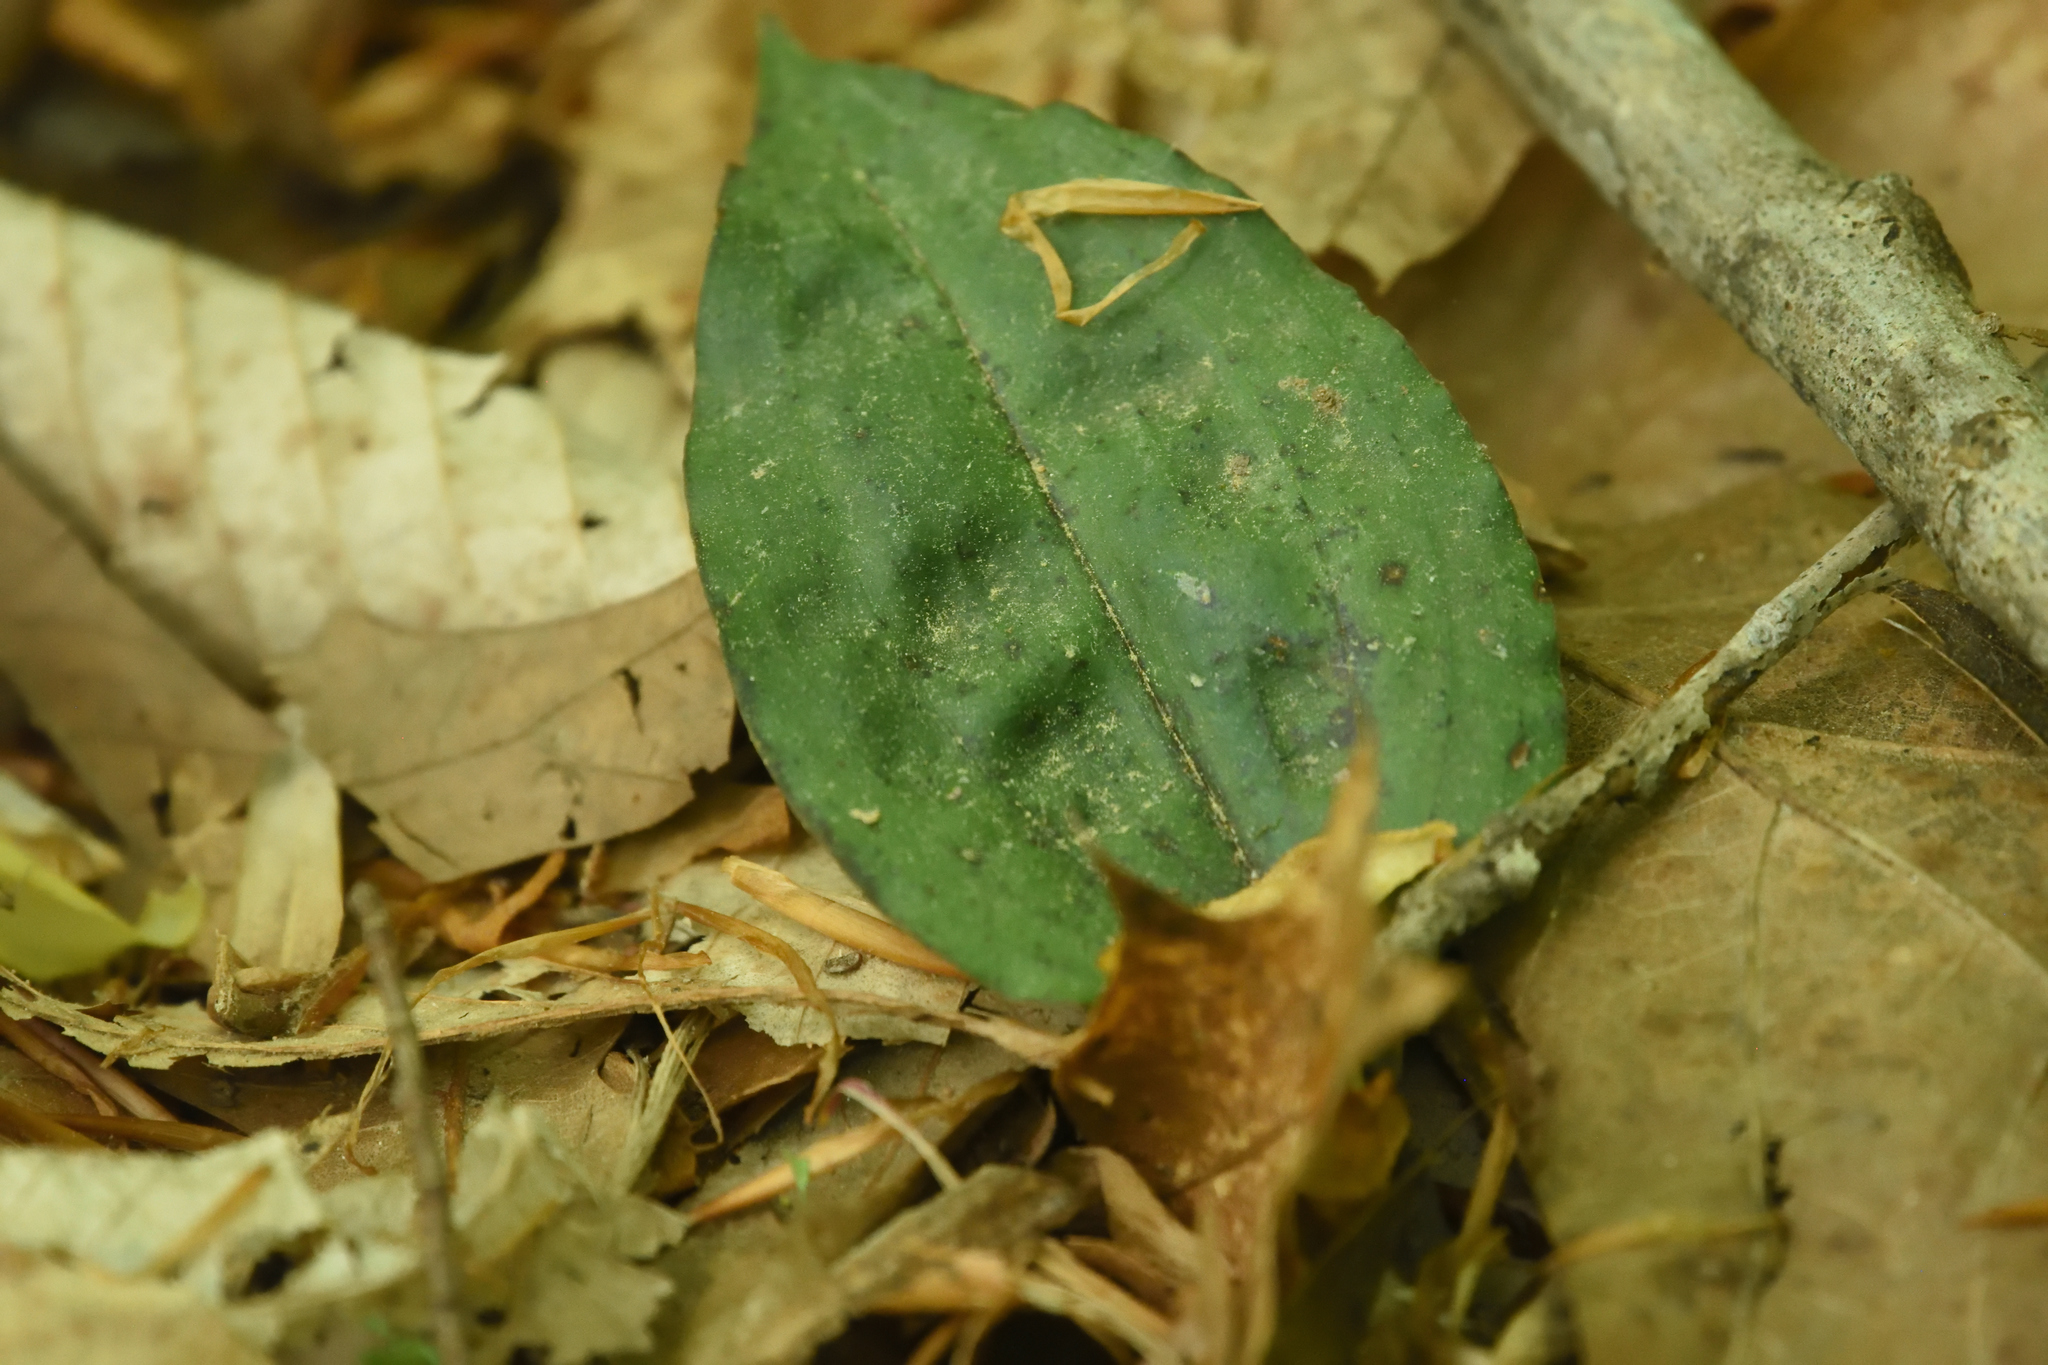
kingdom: Plantae
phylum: Tracheophyta
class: Liliopsida
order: Asparagales
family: Orchidaceae
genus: Tipularia
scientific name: Tipularia discolor
